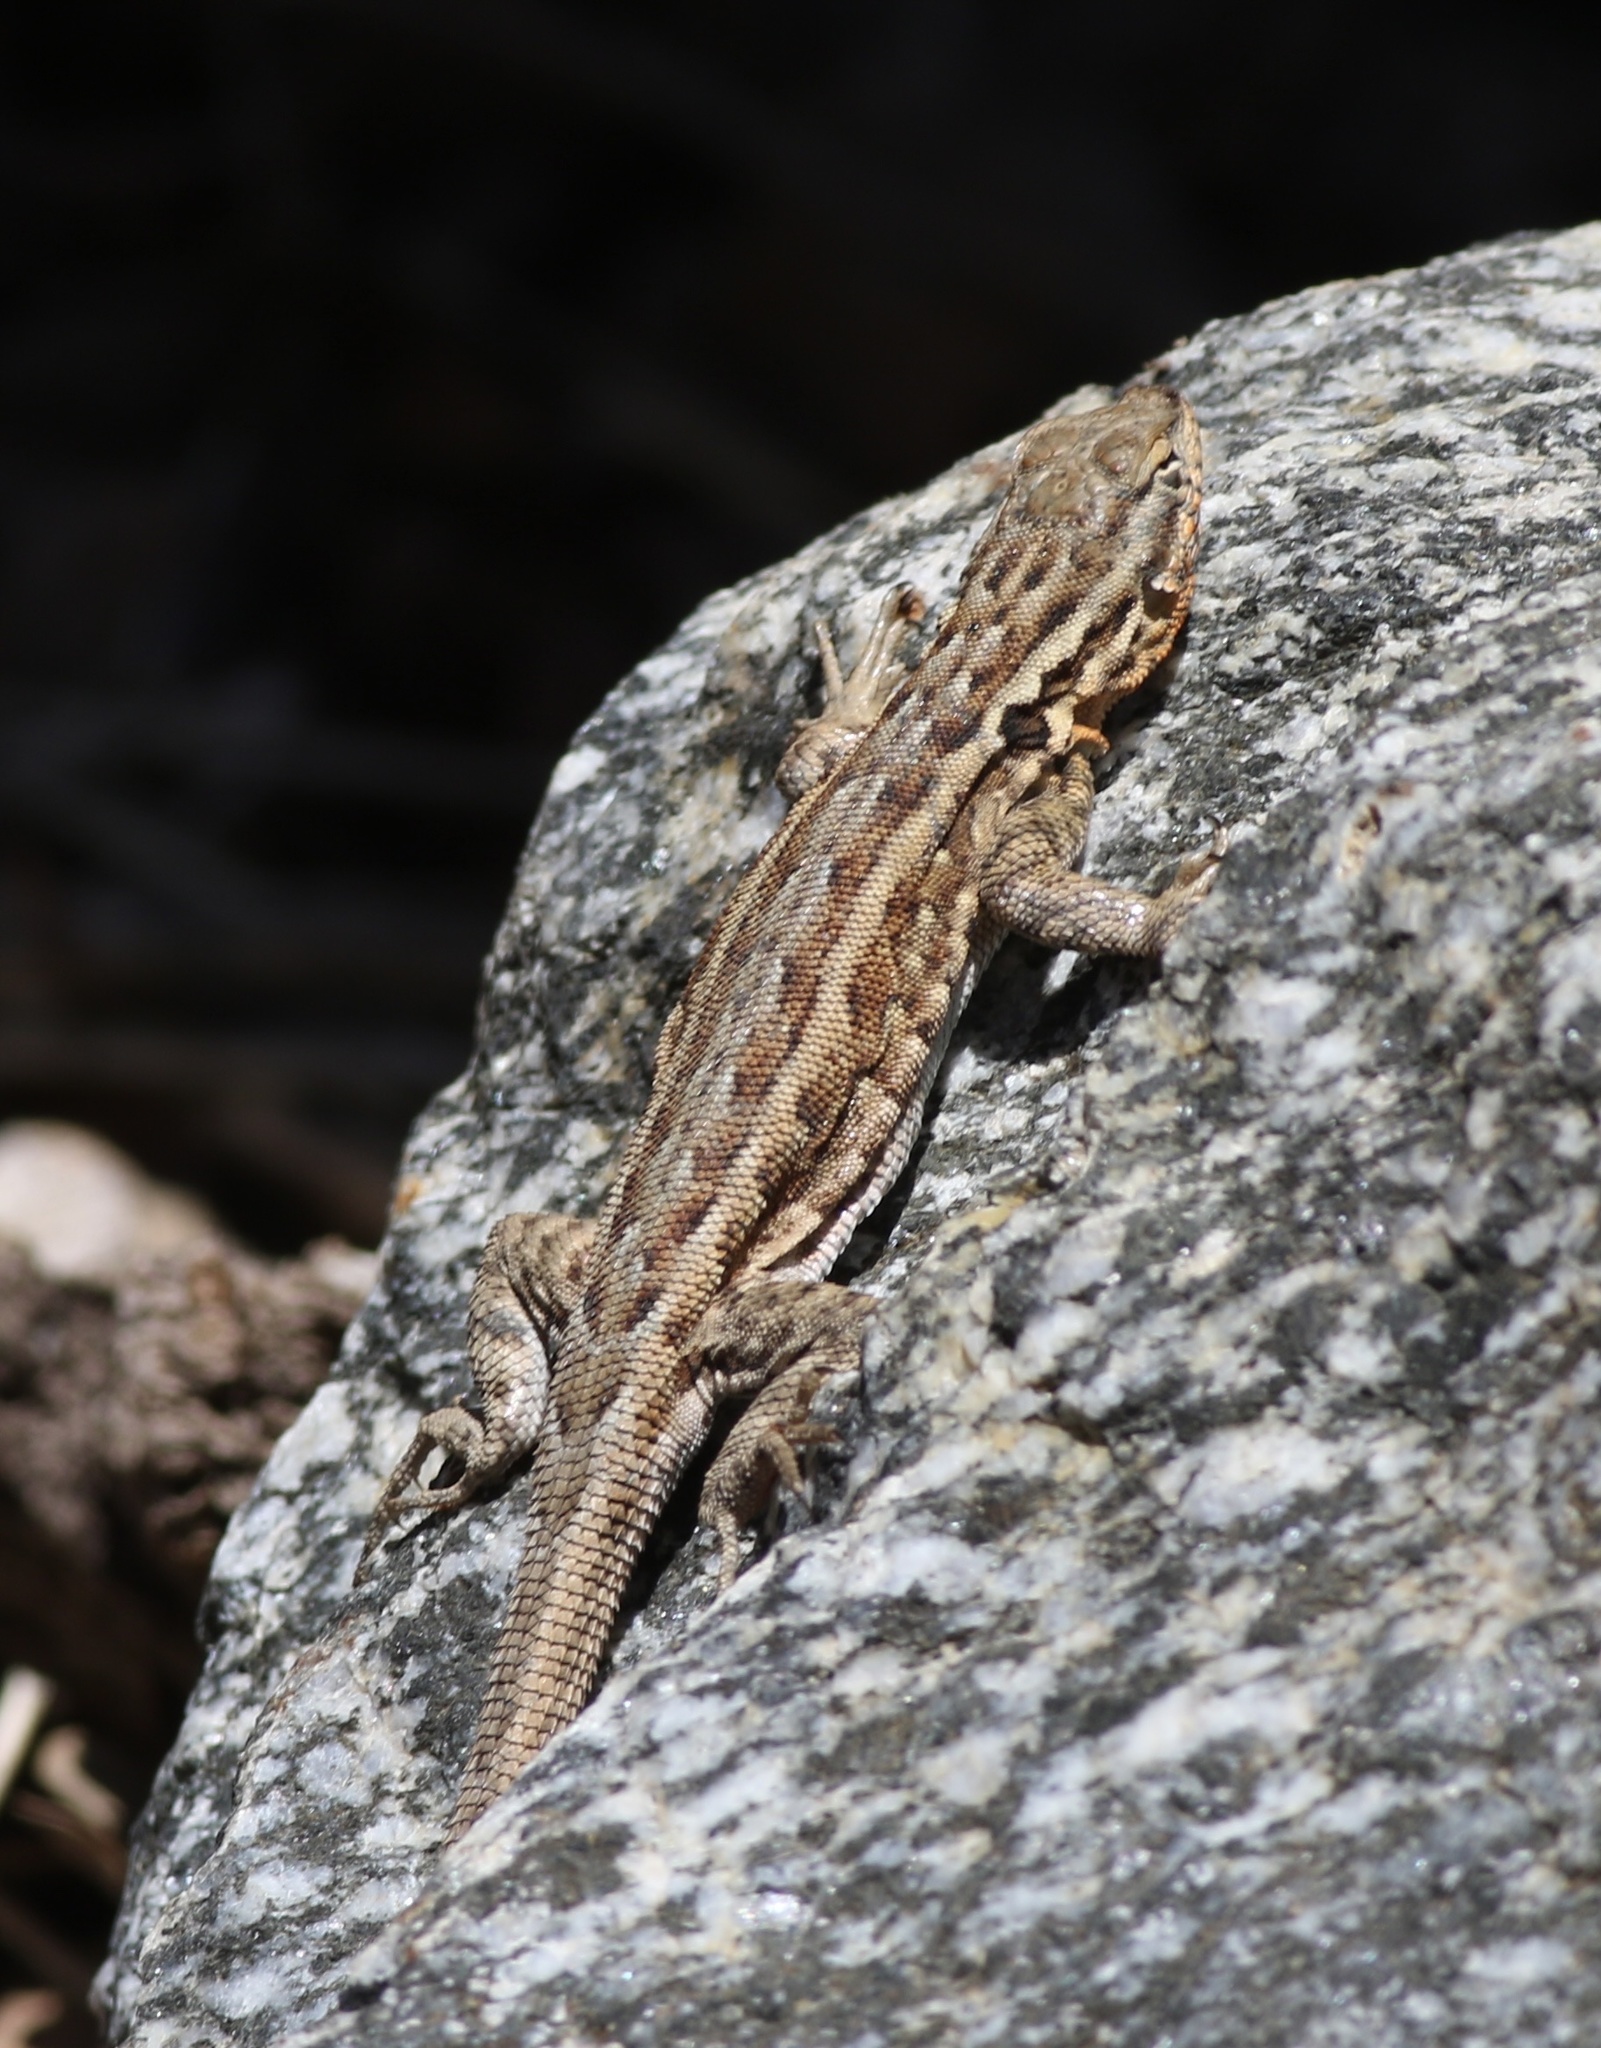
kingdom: Animalia
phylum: Chordata
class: Squamata
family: Phrynosomatidae
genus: Uta
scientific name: Uta stansburiana
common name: Side-blotched lizard
